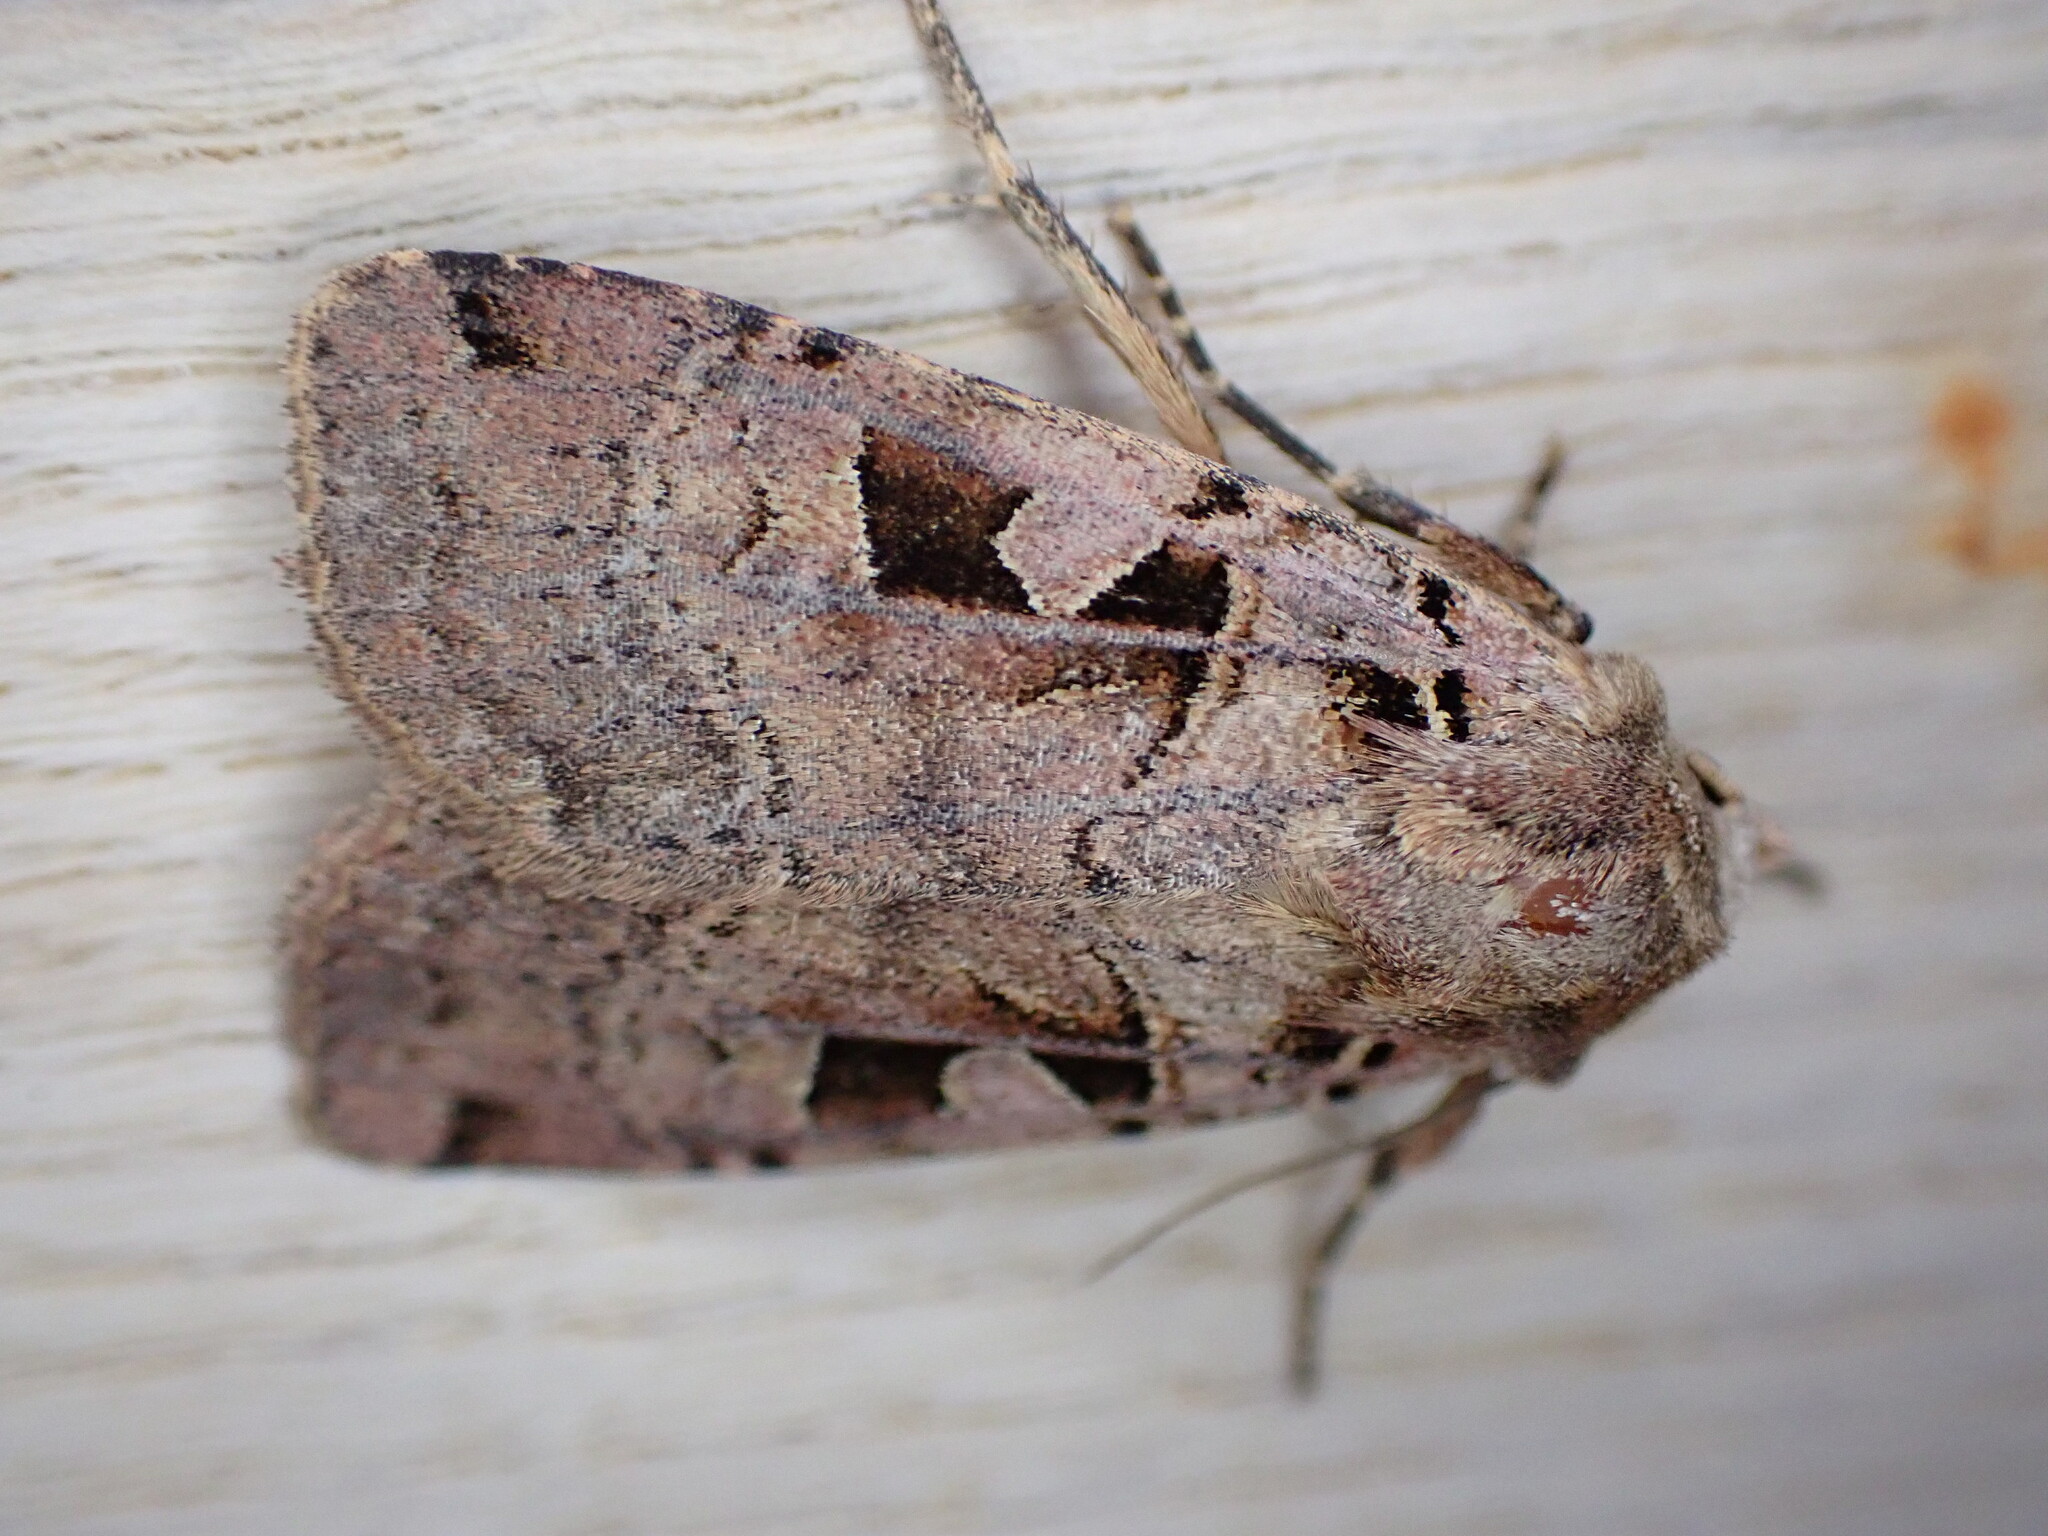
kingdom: Animalia
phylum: Arthropoda
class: Insecta
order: Lepidoptera
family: Noctuidae
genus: Xestia
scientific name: Xestia triangulum
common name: Double square-spot
